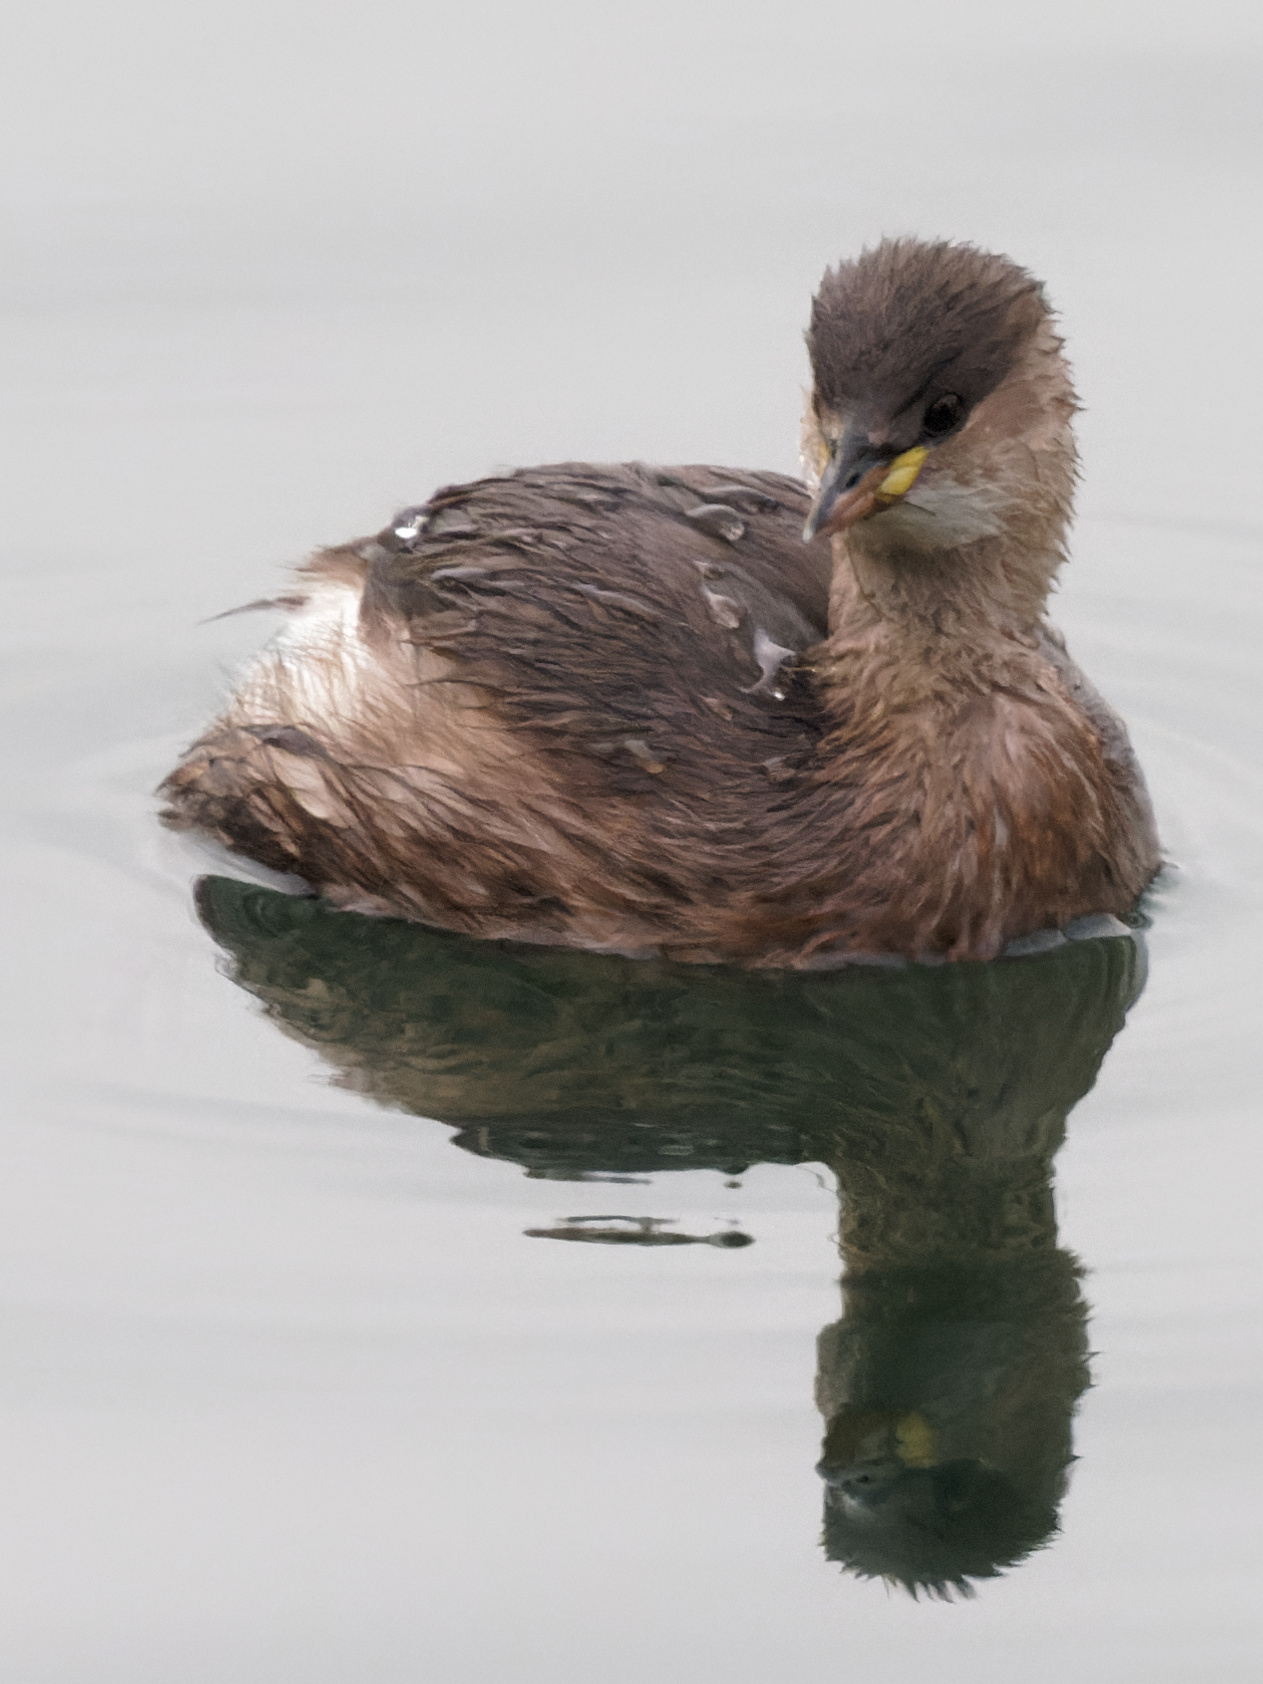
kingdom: Animalia
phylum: Chordata
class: Aves
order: Podicipediformes
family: Podicipedidae
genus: Tachybaptus
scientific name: Tachybaptus ruficollis
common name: Little grebe
